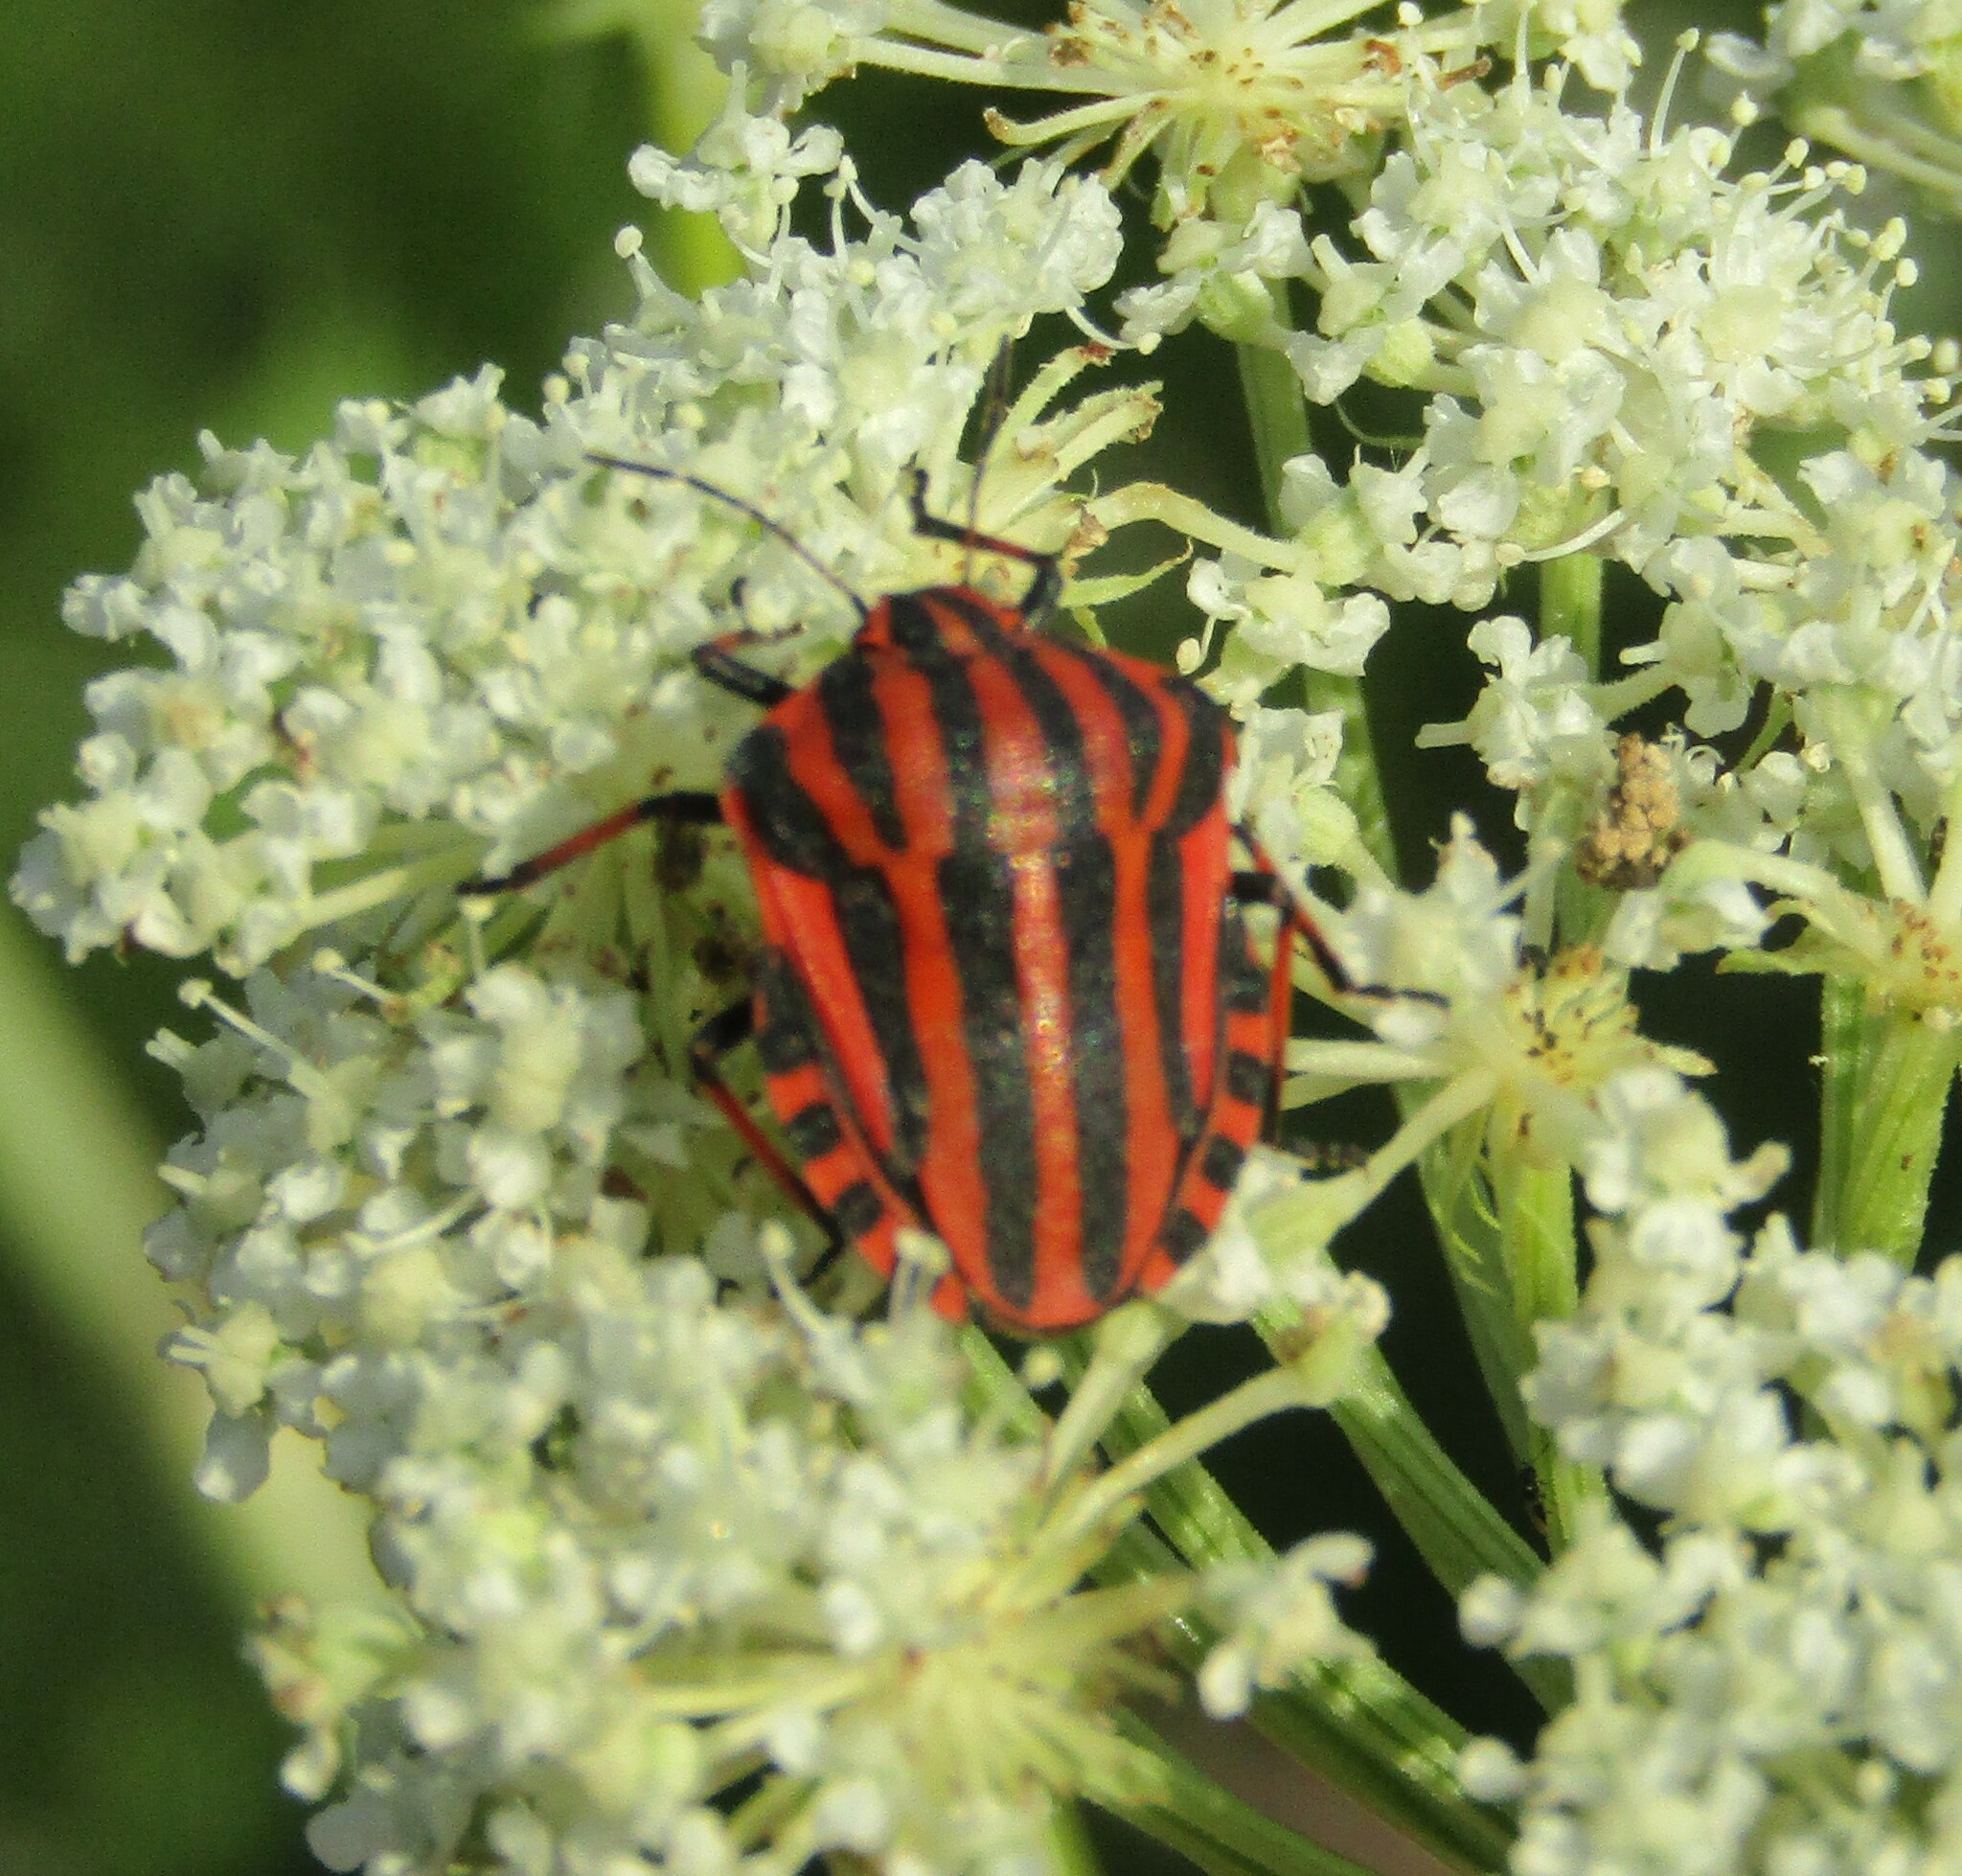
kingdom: Animalia
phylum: Arthropoda
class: Insecta
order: Hemiptera
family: Pentatomidae
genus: Graphosoma
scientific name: Graphosoma italicum
